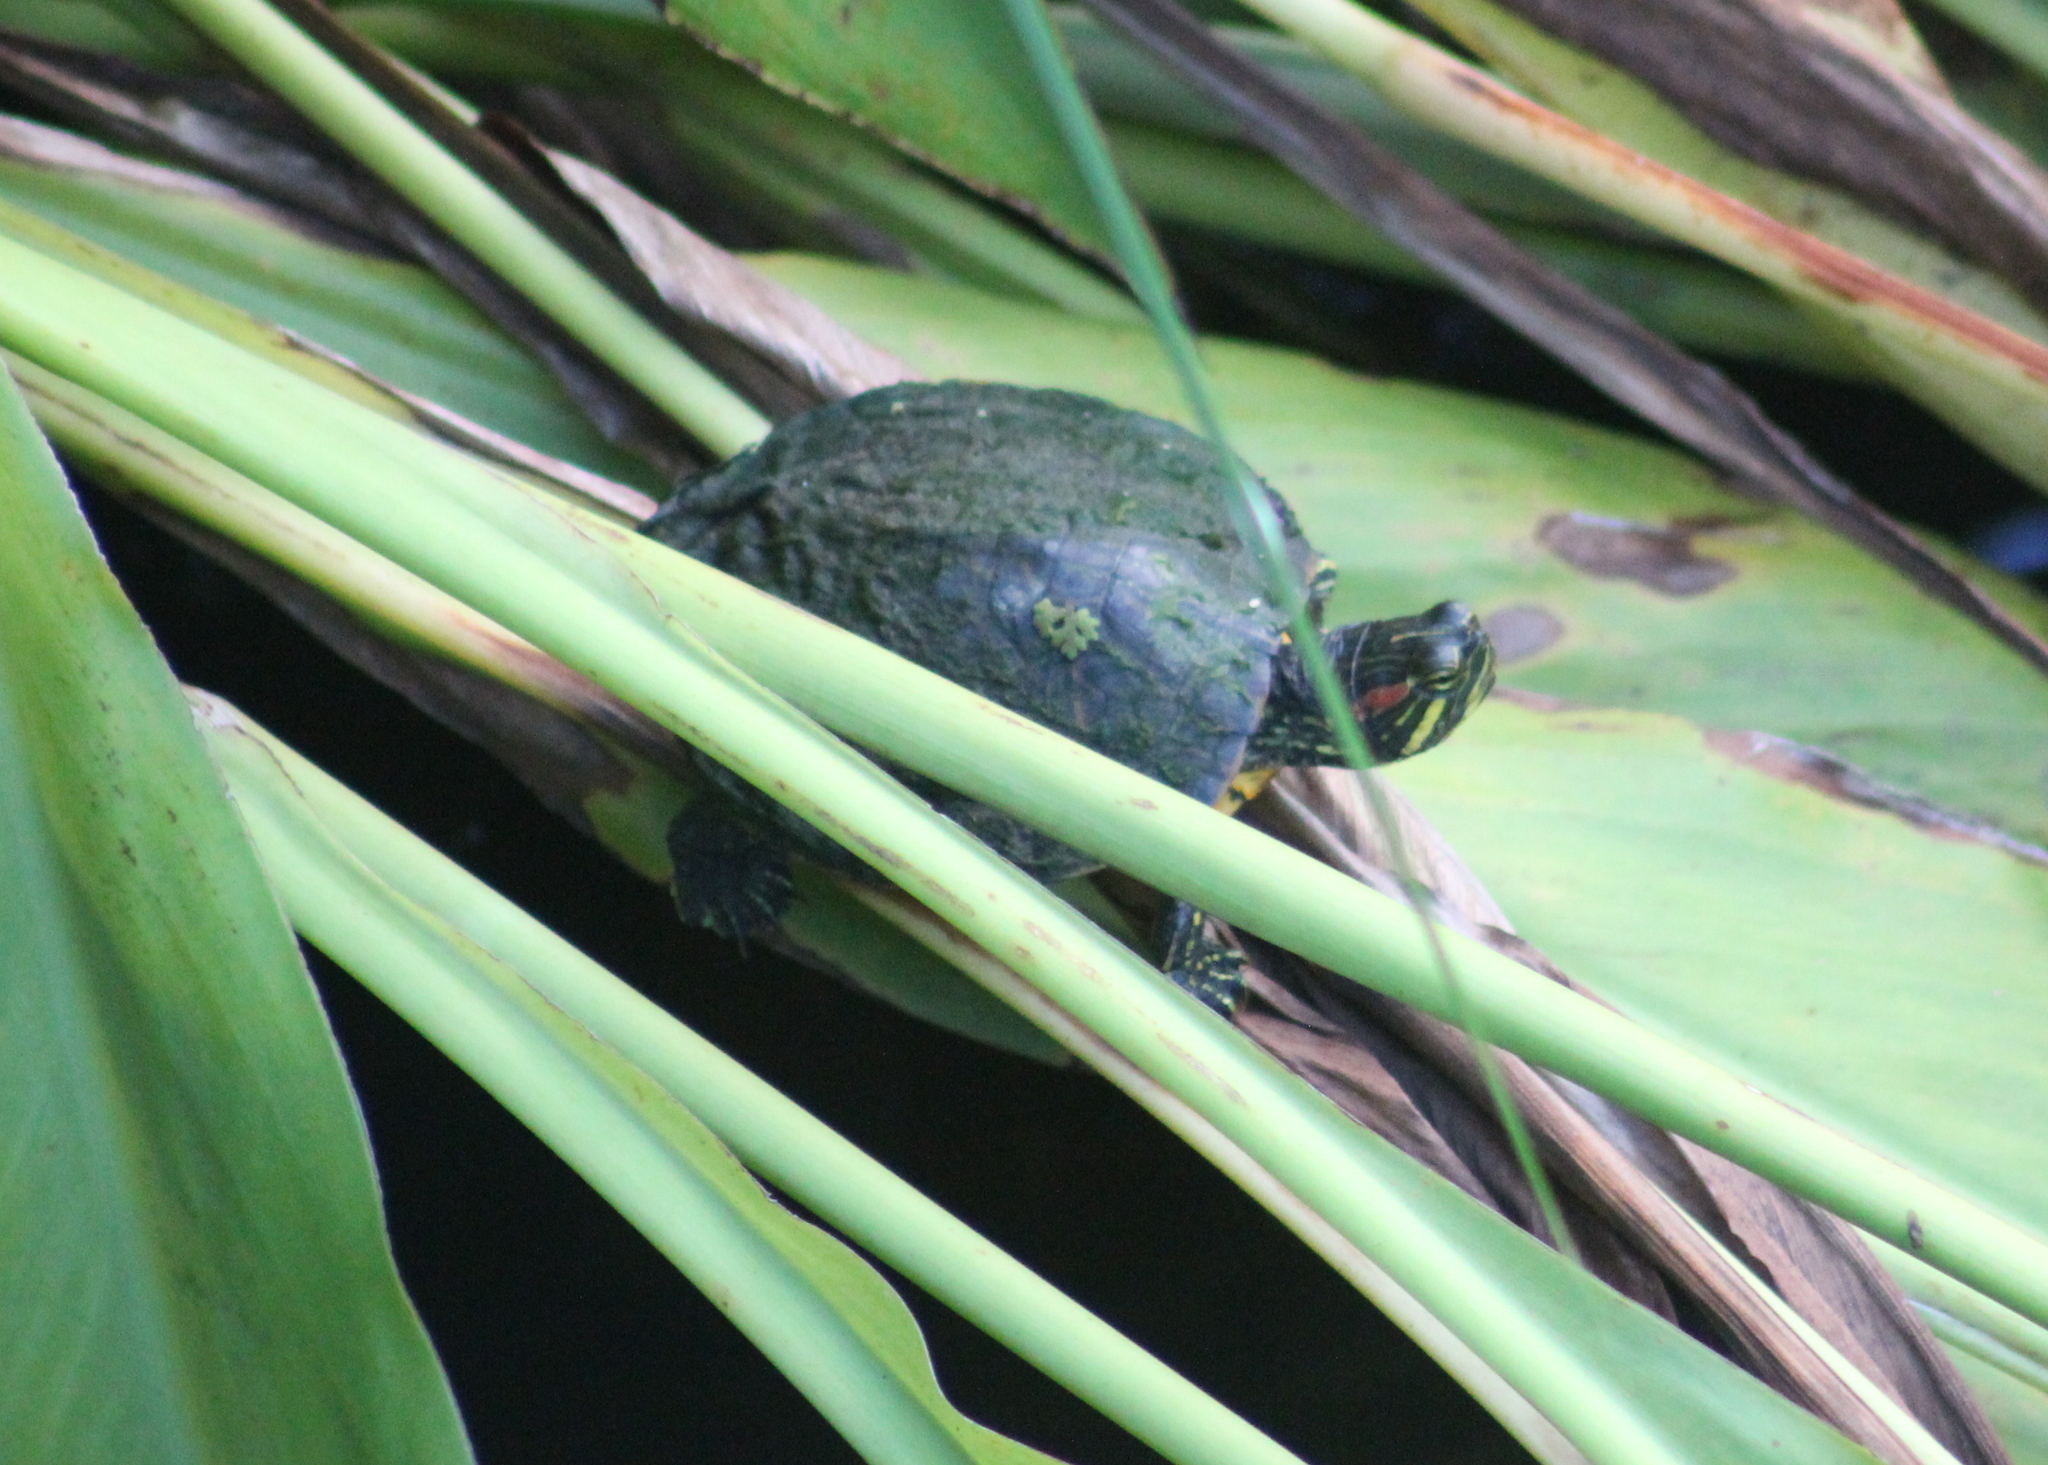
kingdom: Animalia
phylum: Chordata
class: Testudines
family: Emydidae
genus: Trachemys
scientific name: Trachemys scripta
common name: Slider
